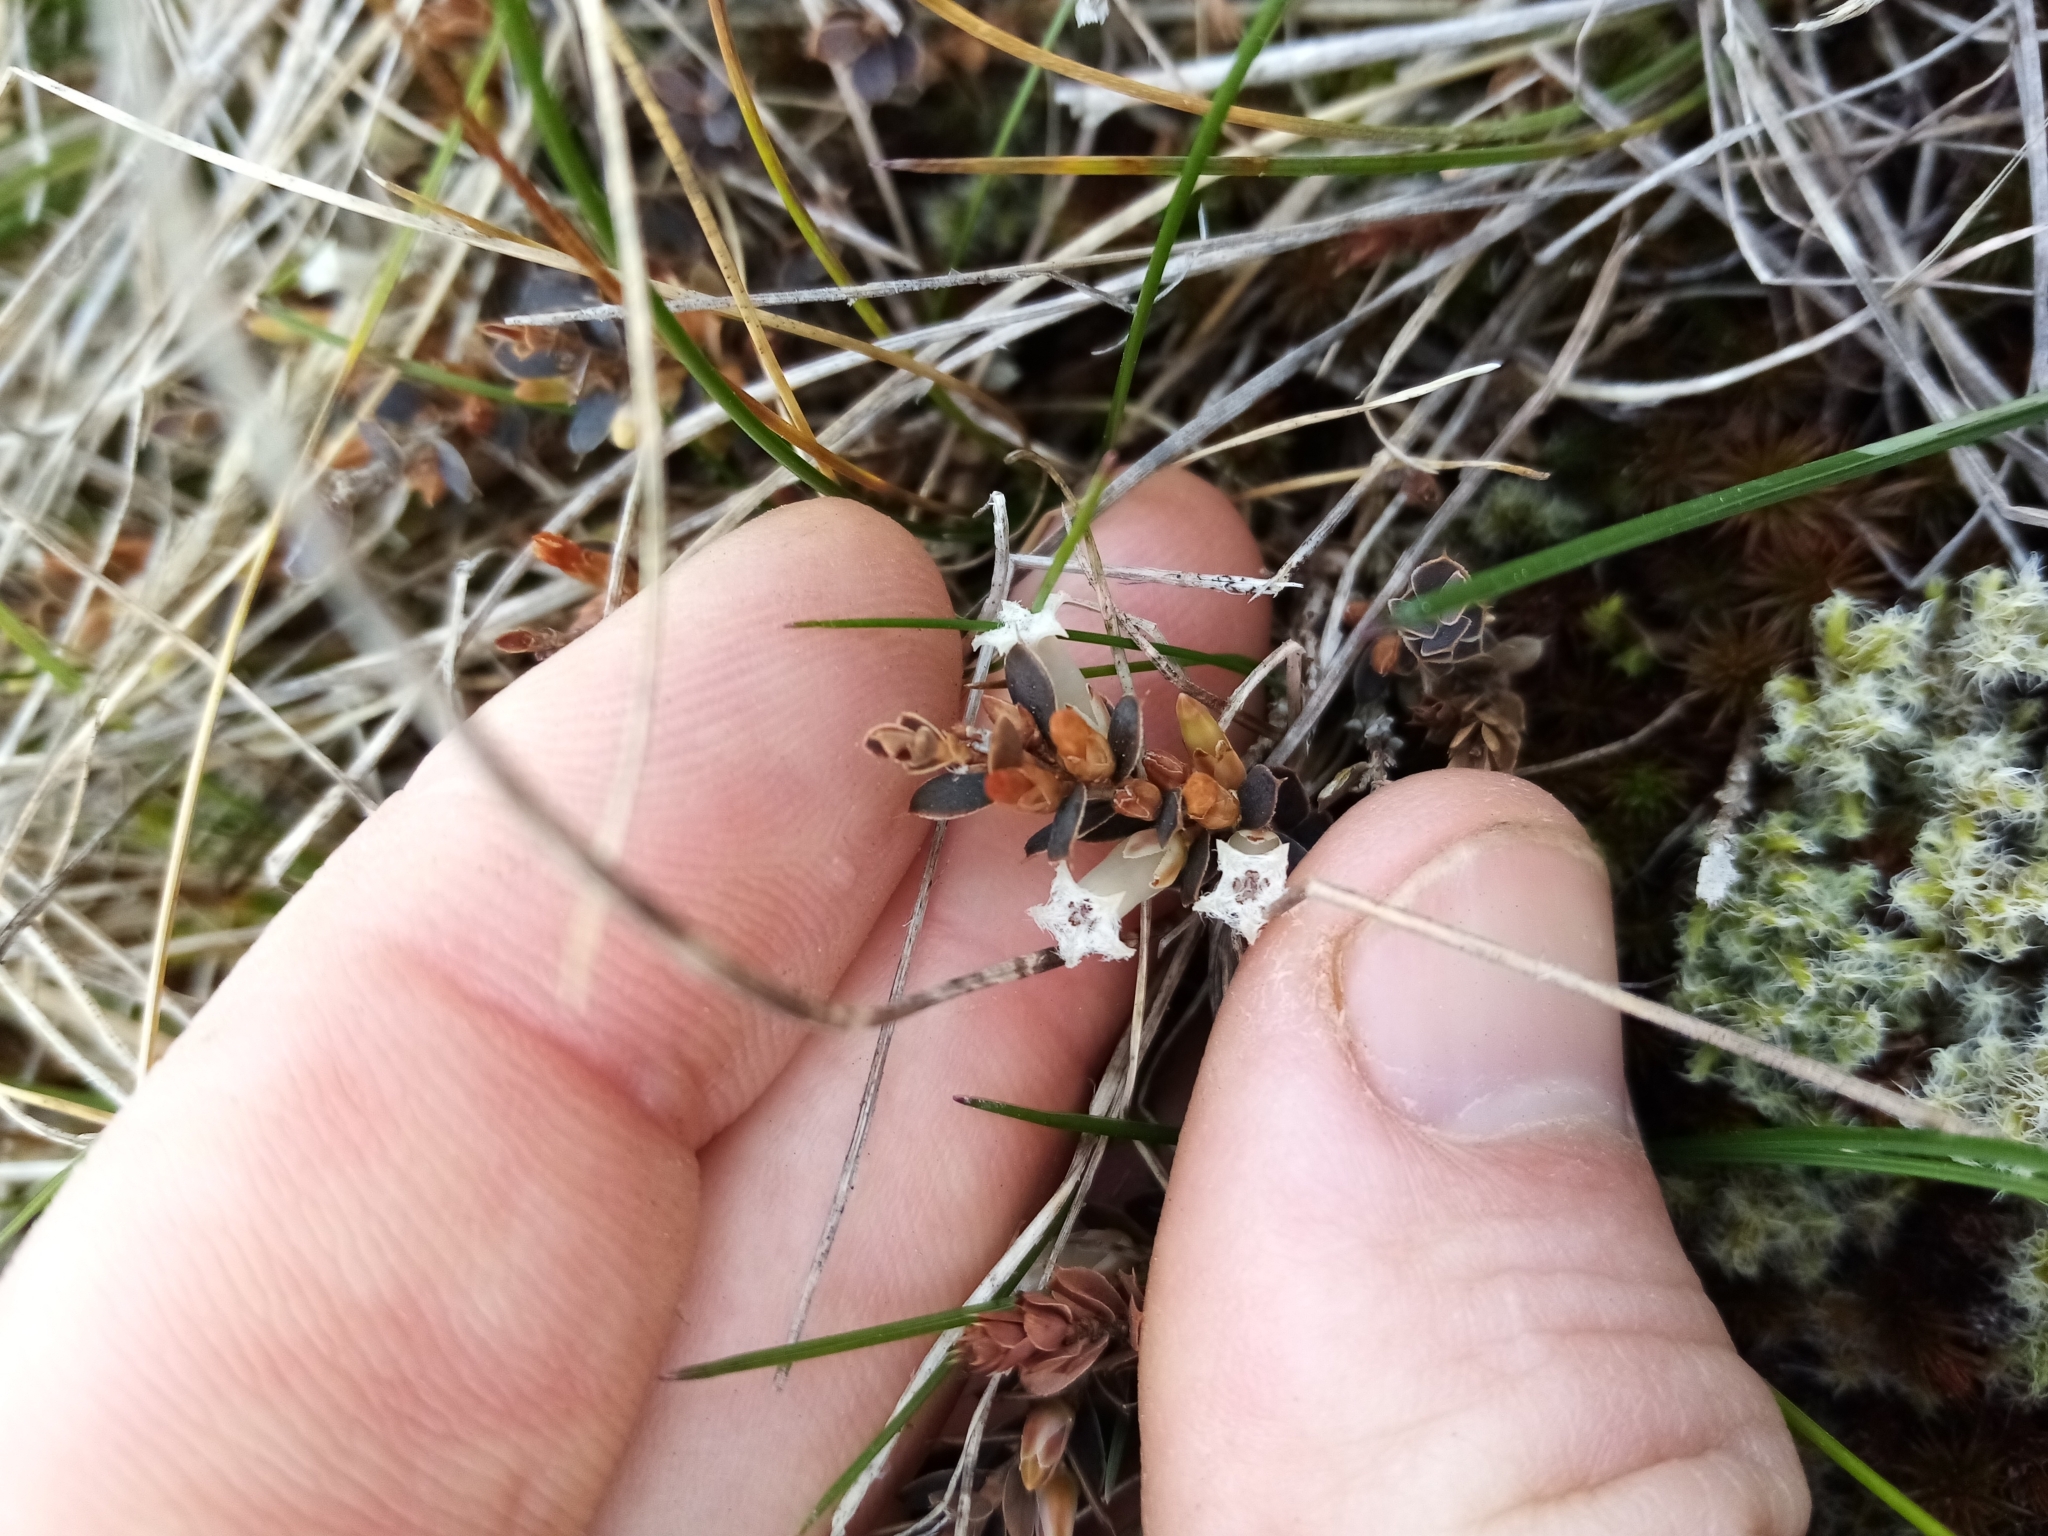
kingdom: Plantae
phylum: Tracheophyta
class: Magnoliopsida
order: Ericales
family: Ericaceae
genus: Styphelia
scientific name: Styphelia nesophila
